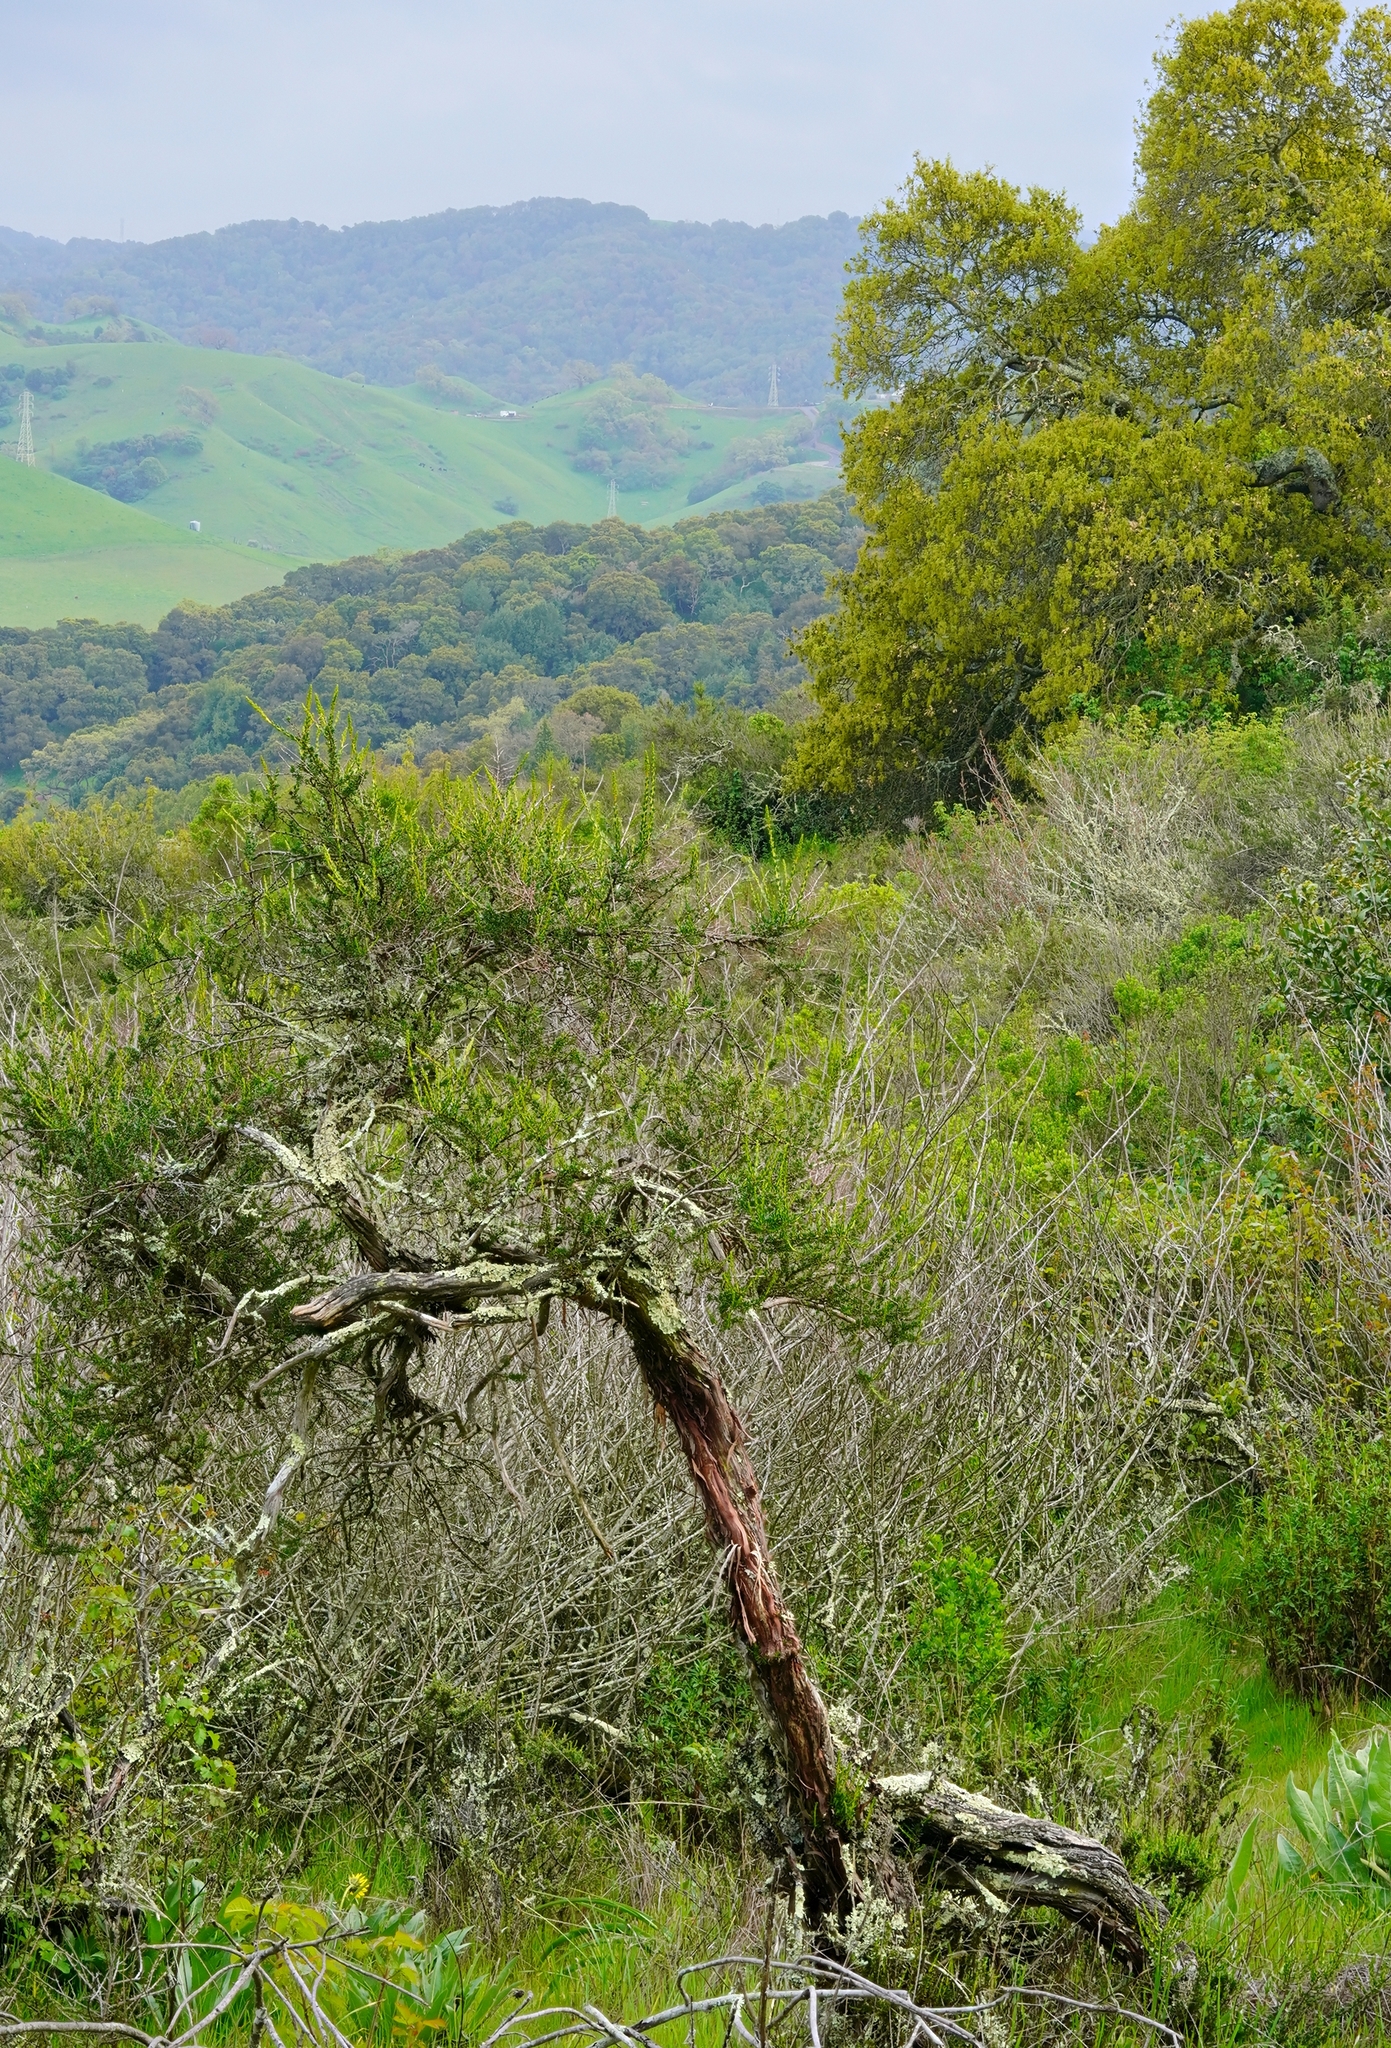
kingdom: Plantae
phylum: Tracheophyta
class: Magnoliopsida
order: Rosales
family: Rosaceae
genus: Adenostoma
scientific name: Adenostoma fasciculatum
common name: Chamise
